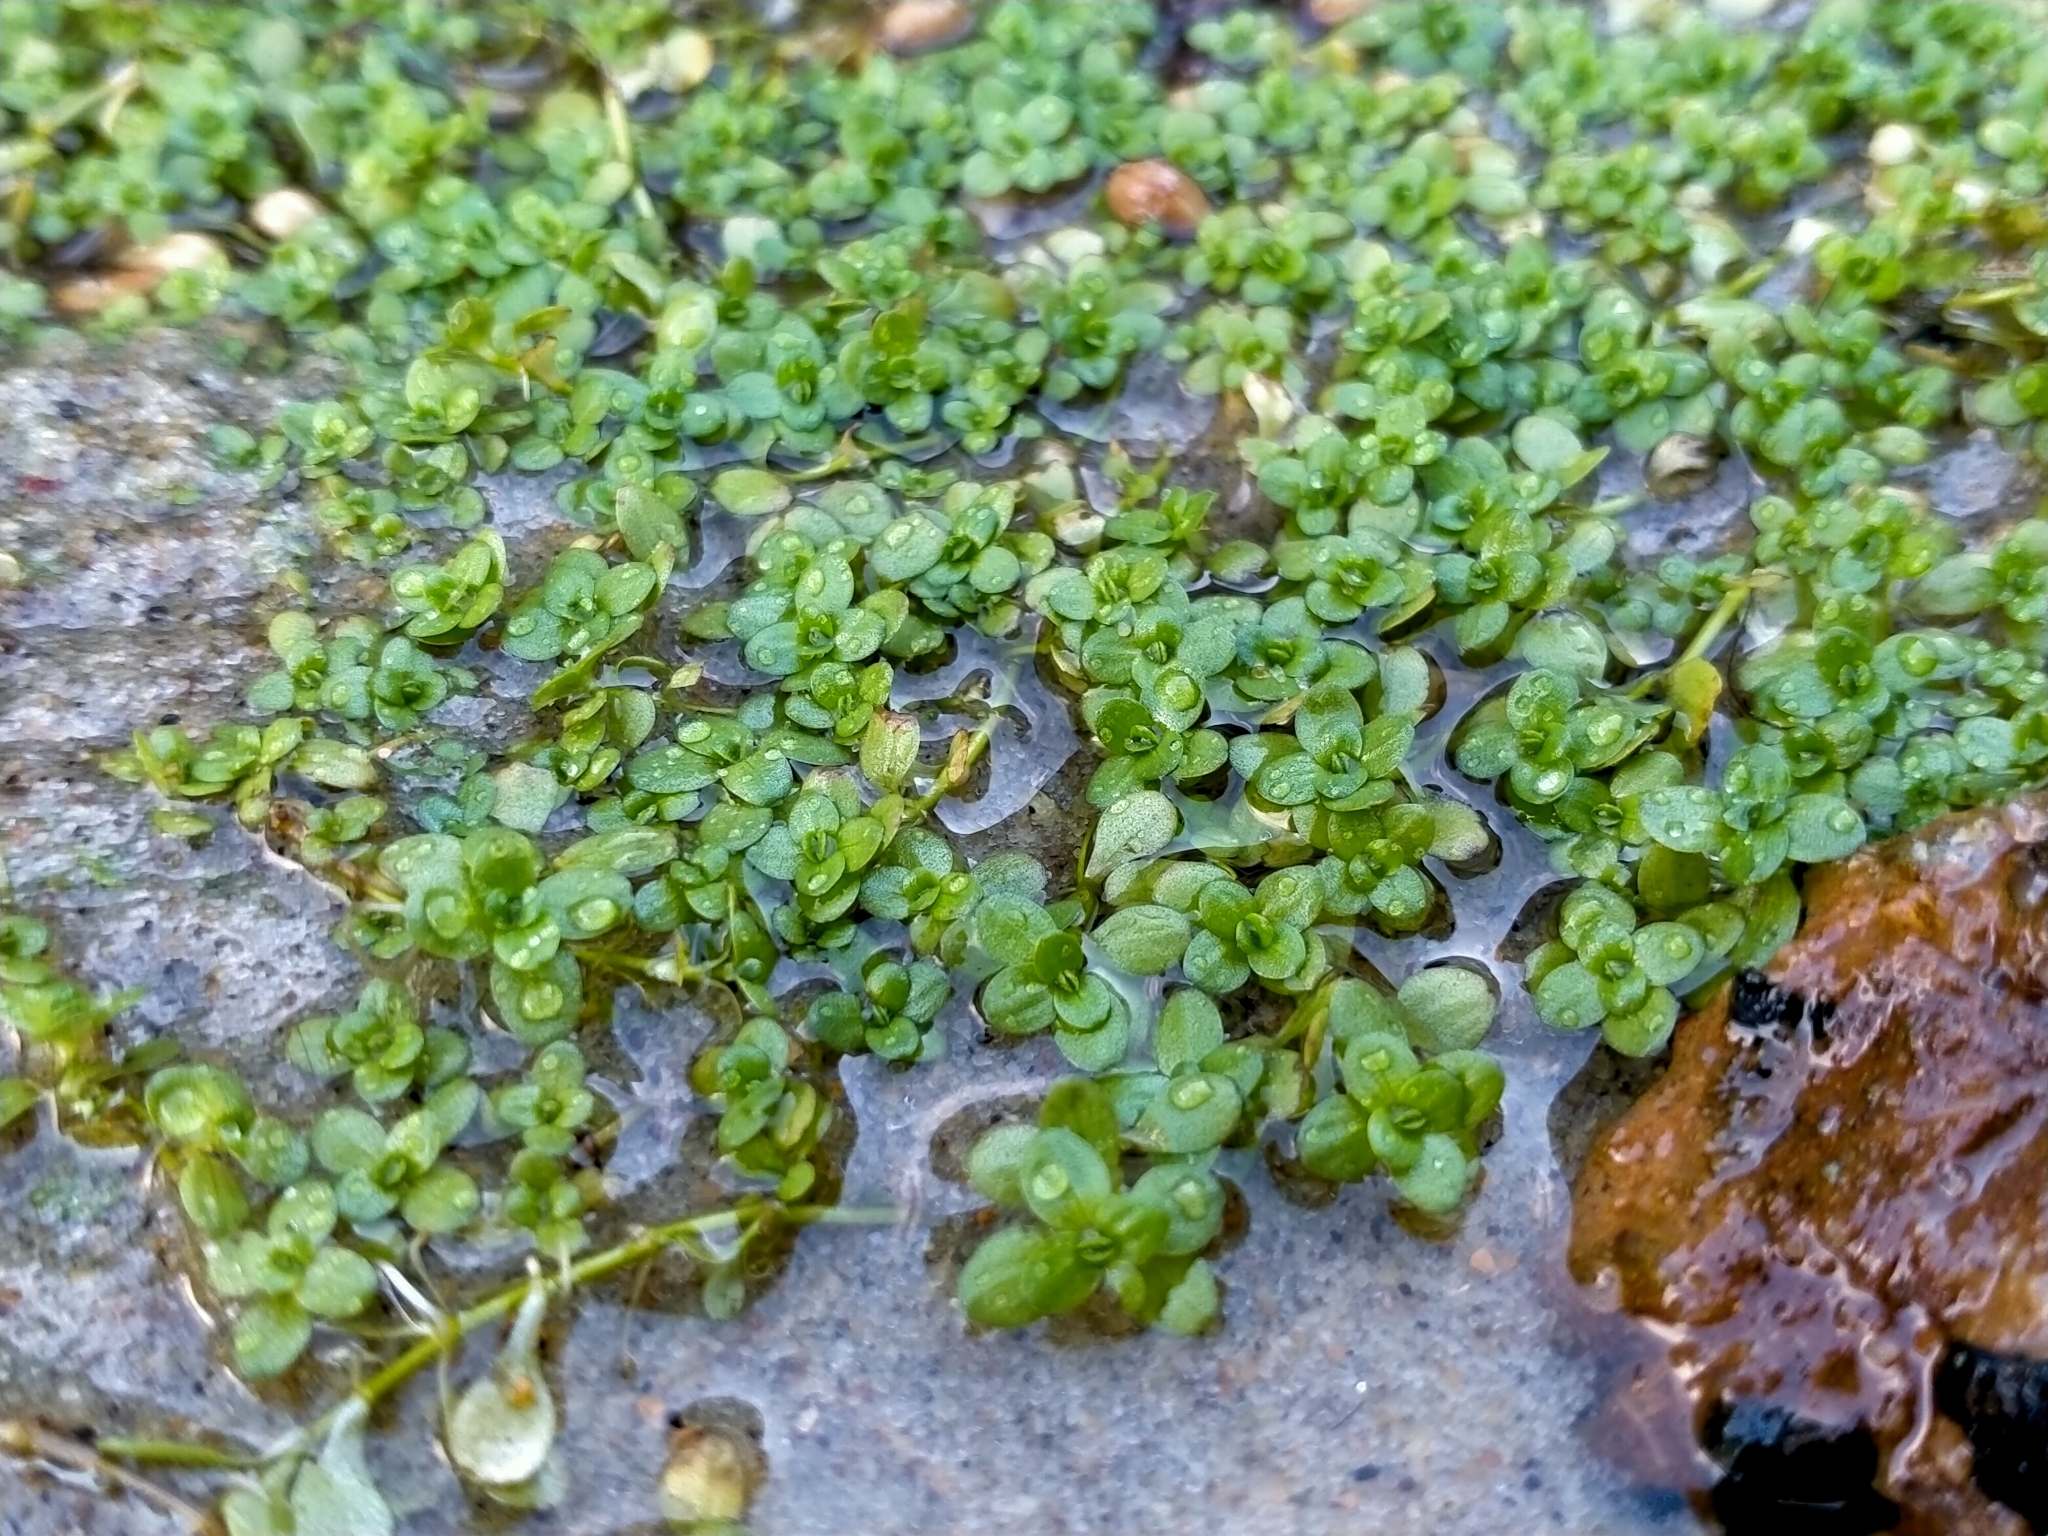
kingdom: Plantae
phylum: Tracheophyta
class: Magnoliopsida
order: Lamiales
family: Plantaginaceae
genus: Callitriche
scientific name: Callitriche stagnalis
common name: Common water-starwort
